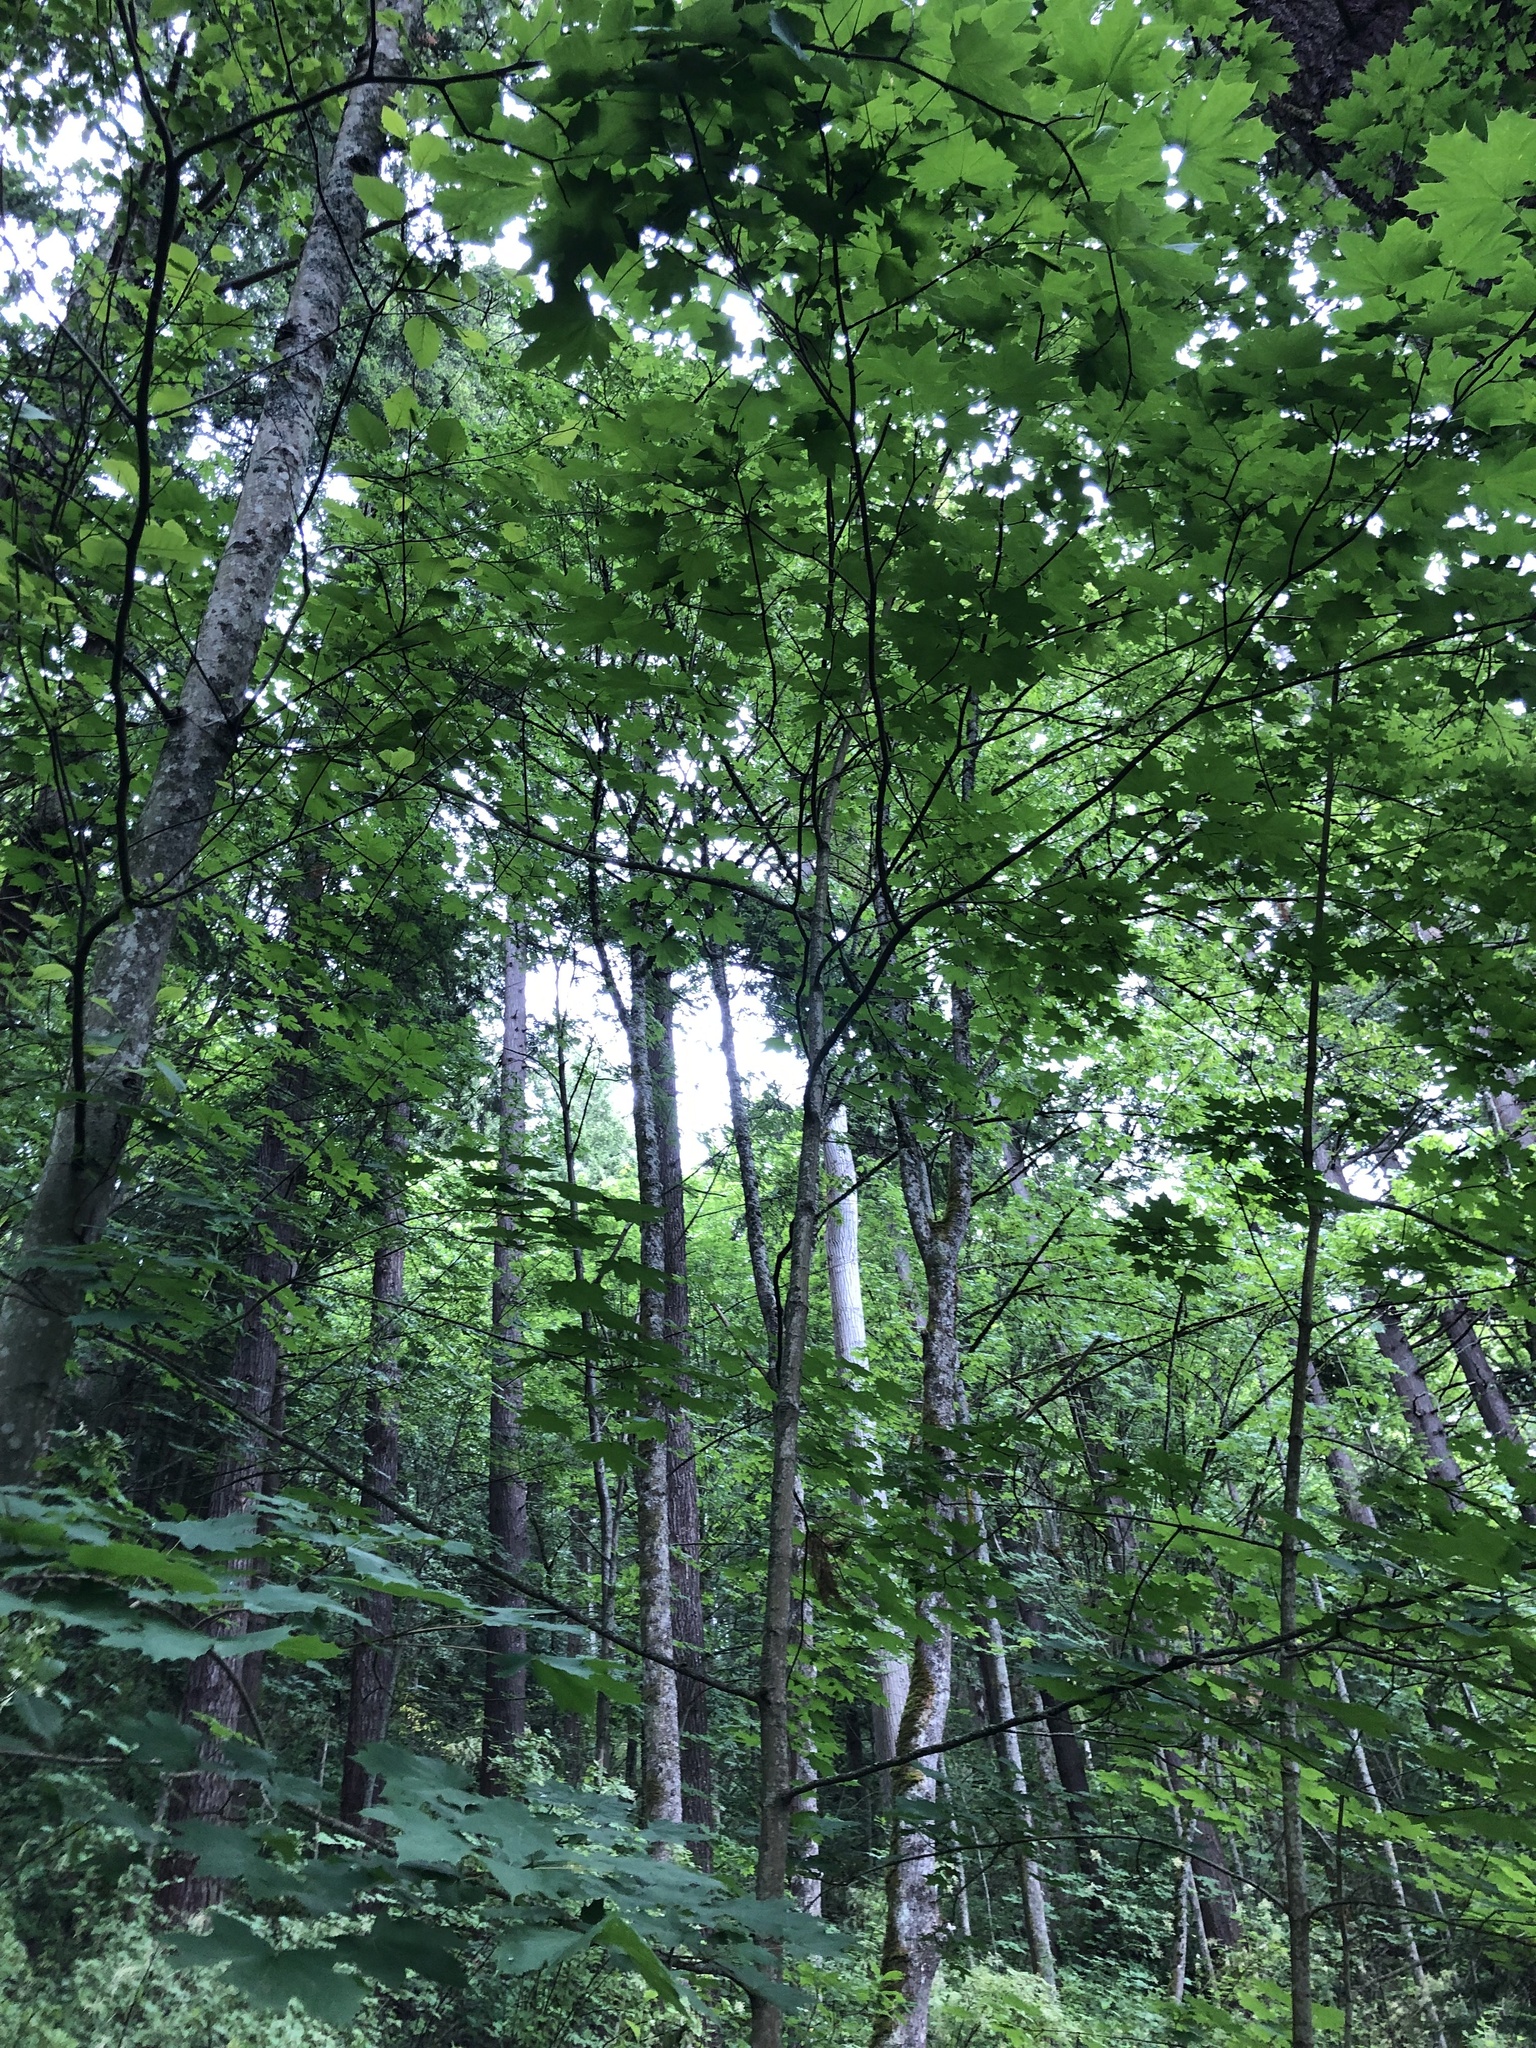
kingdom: Plantae
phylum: Tracheophyta
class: Magnoliopsida
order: Sapindales
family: Sapindaceae
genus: Acer
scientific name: Acer platanoides
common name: Norway maple
